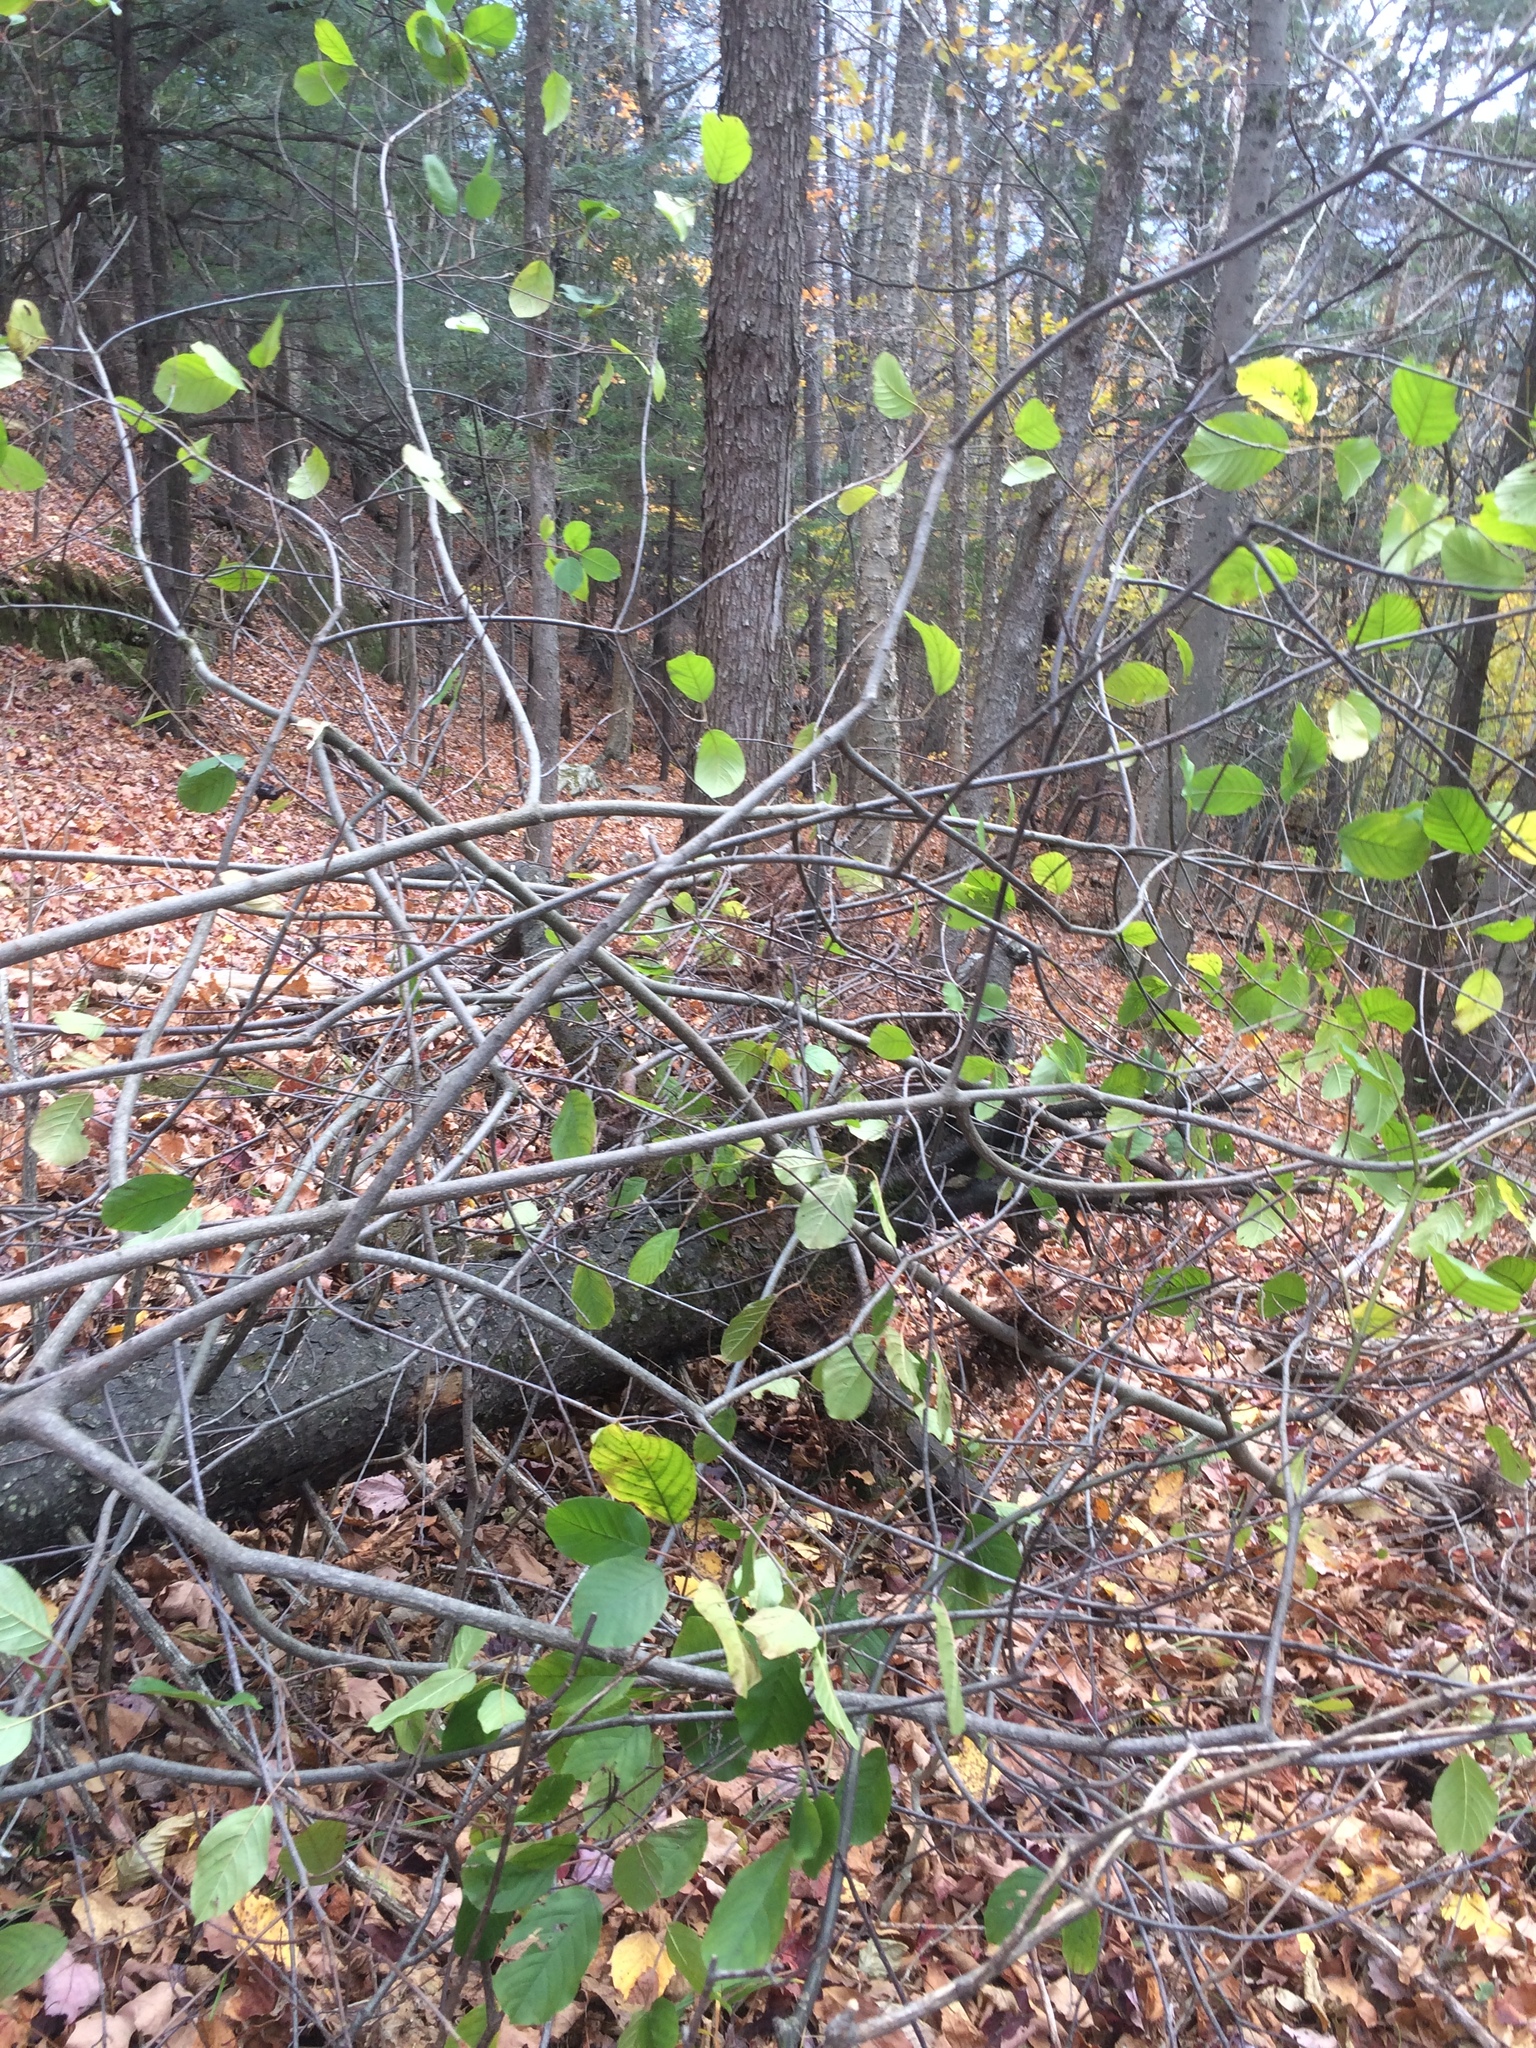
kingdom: Plantae
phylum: Tracheophyta
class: Magnoliopsida
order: Rosales
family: Rhamnaceae
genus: Frangula
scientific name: Frangula alnus
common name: Alder buckthorn
